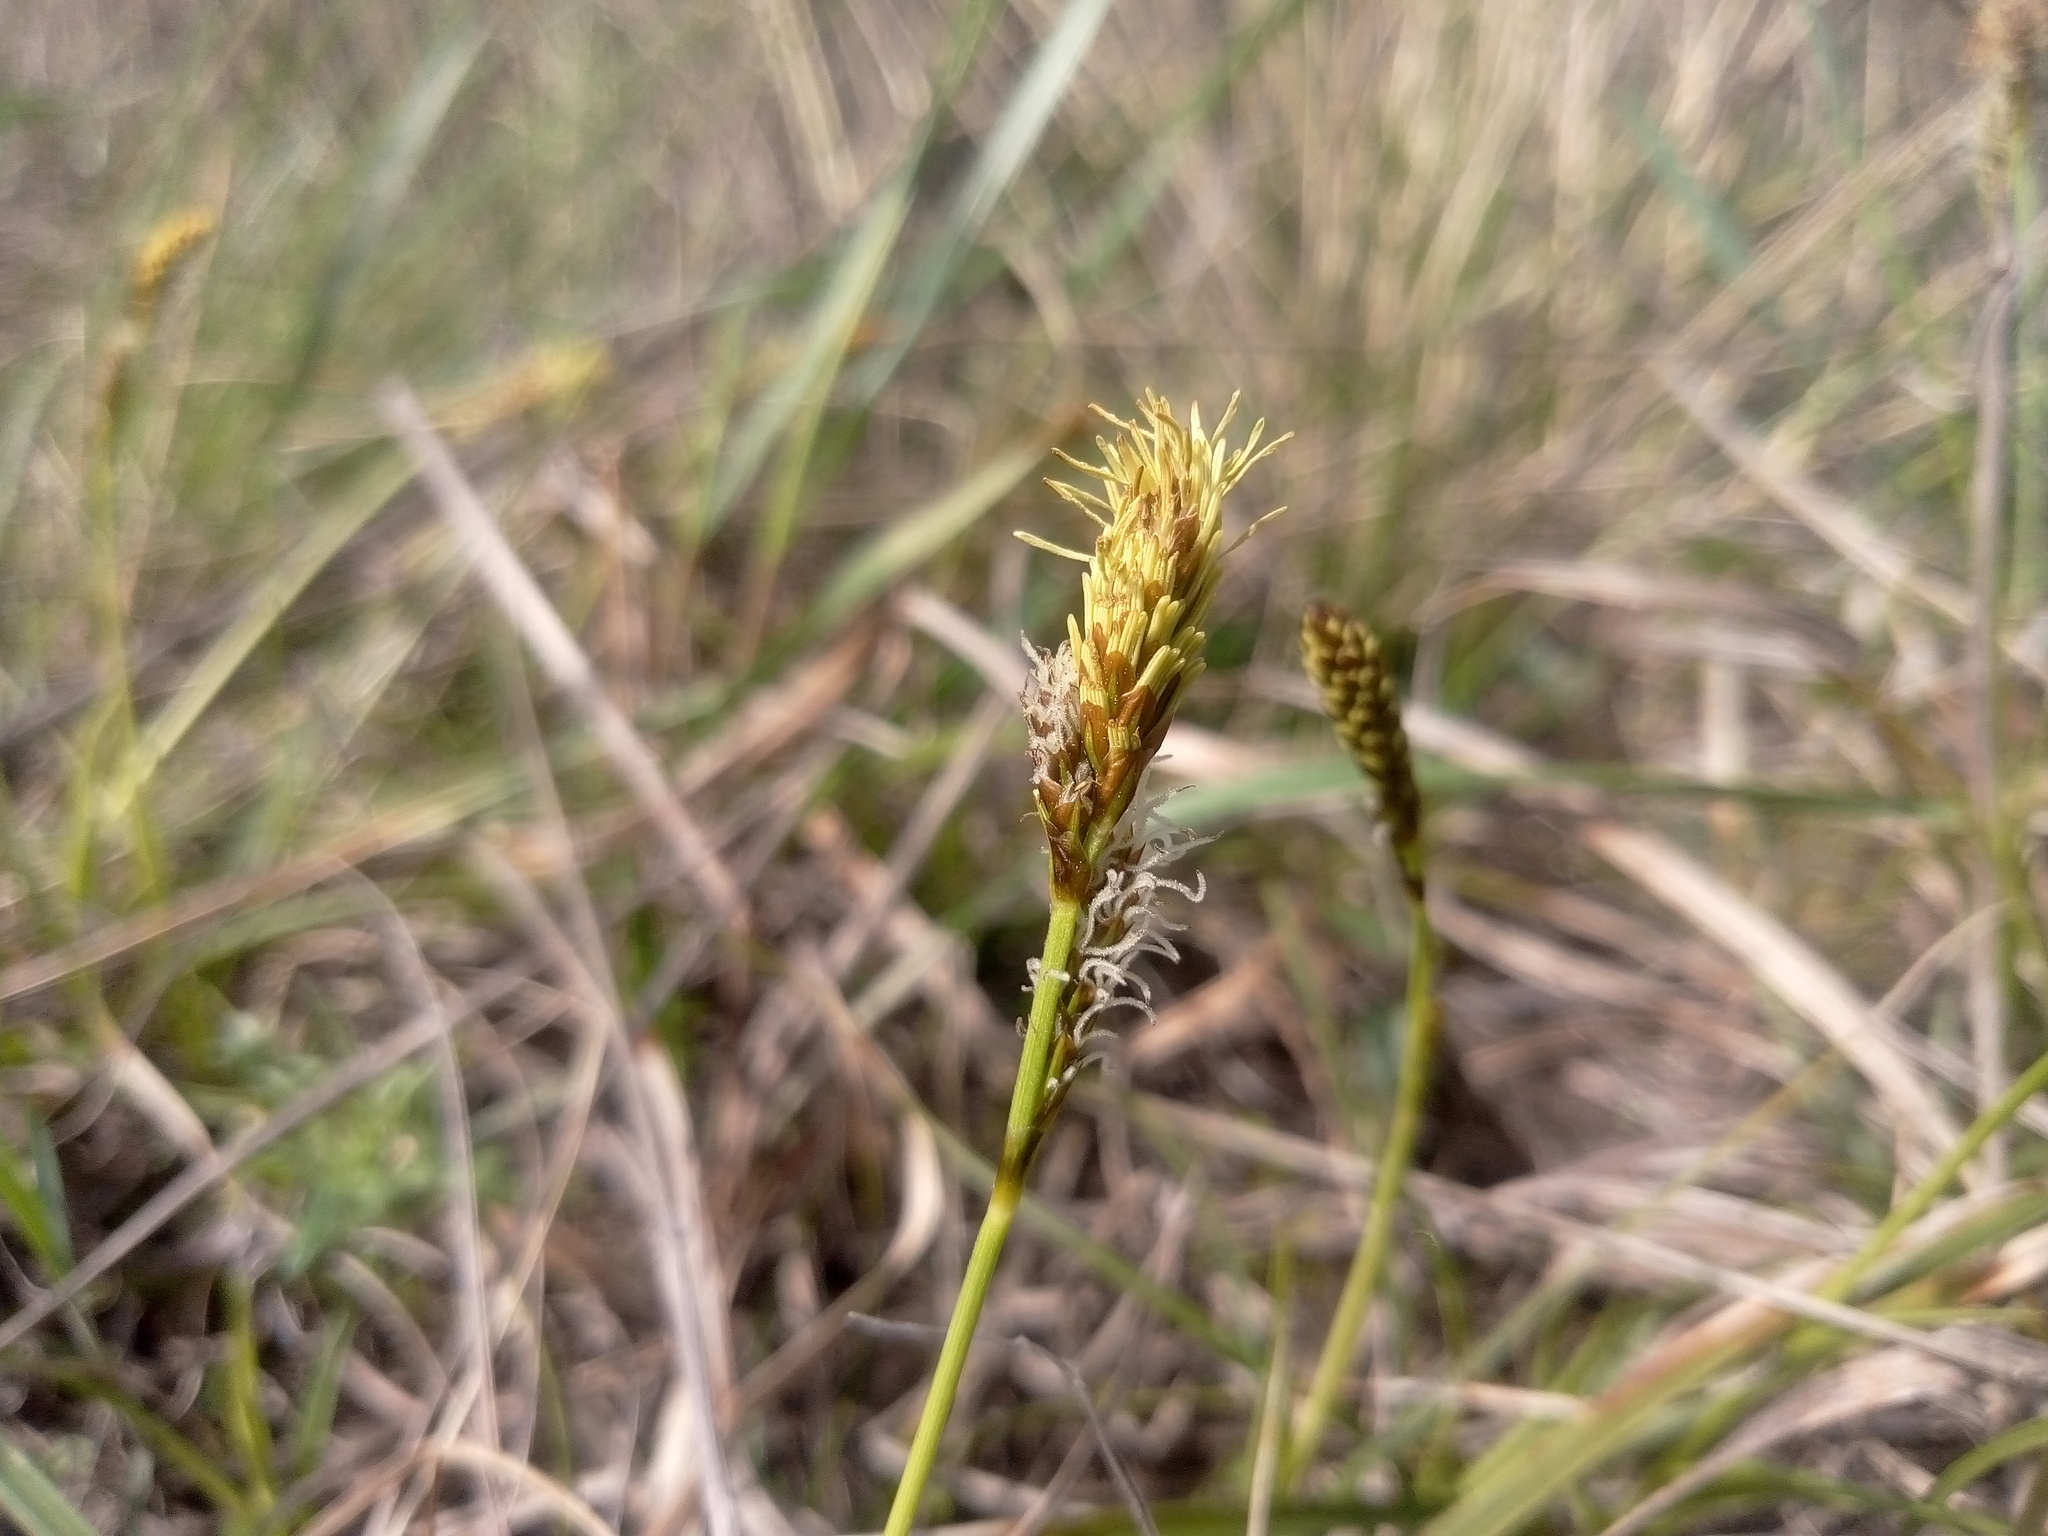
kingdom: Plantae
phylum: Tracheophyta
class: Liliopsida
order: Poales
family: Cyperaceae
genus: Carex
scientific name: Carex caryophyllea
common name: Spring sedge
